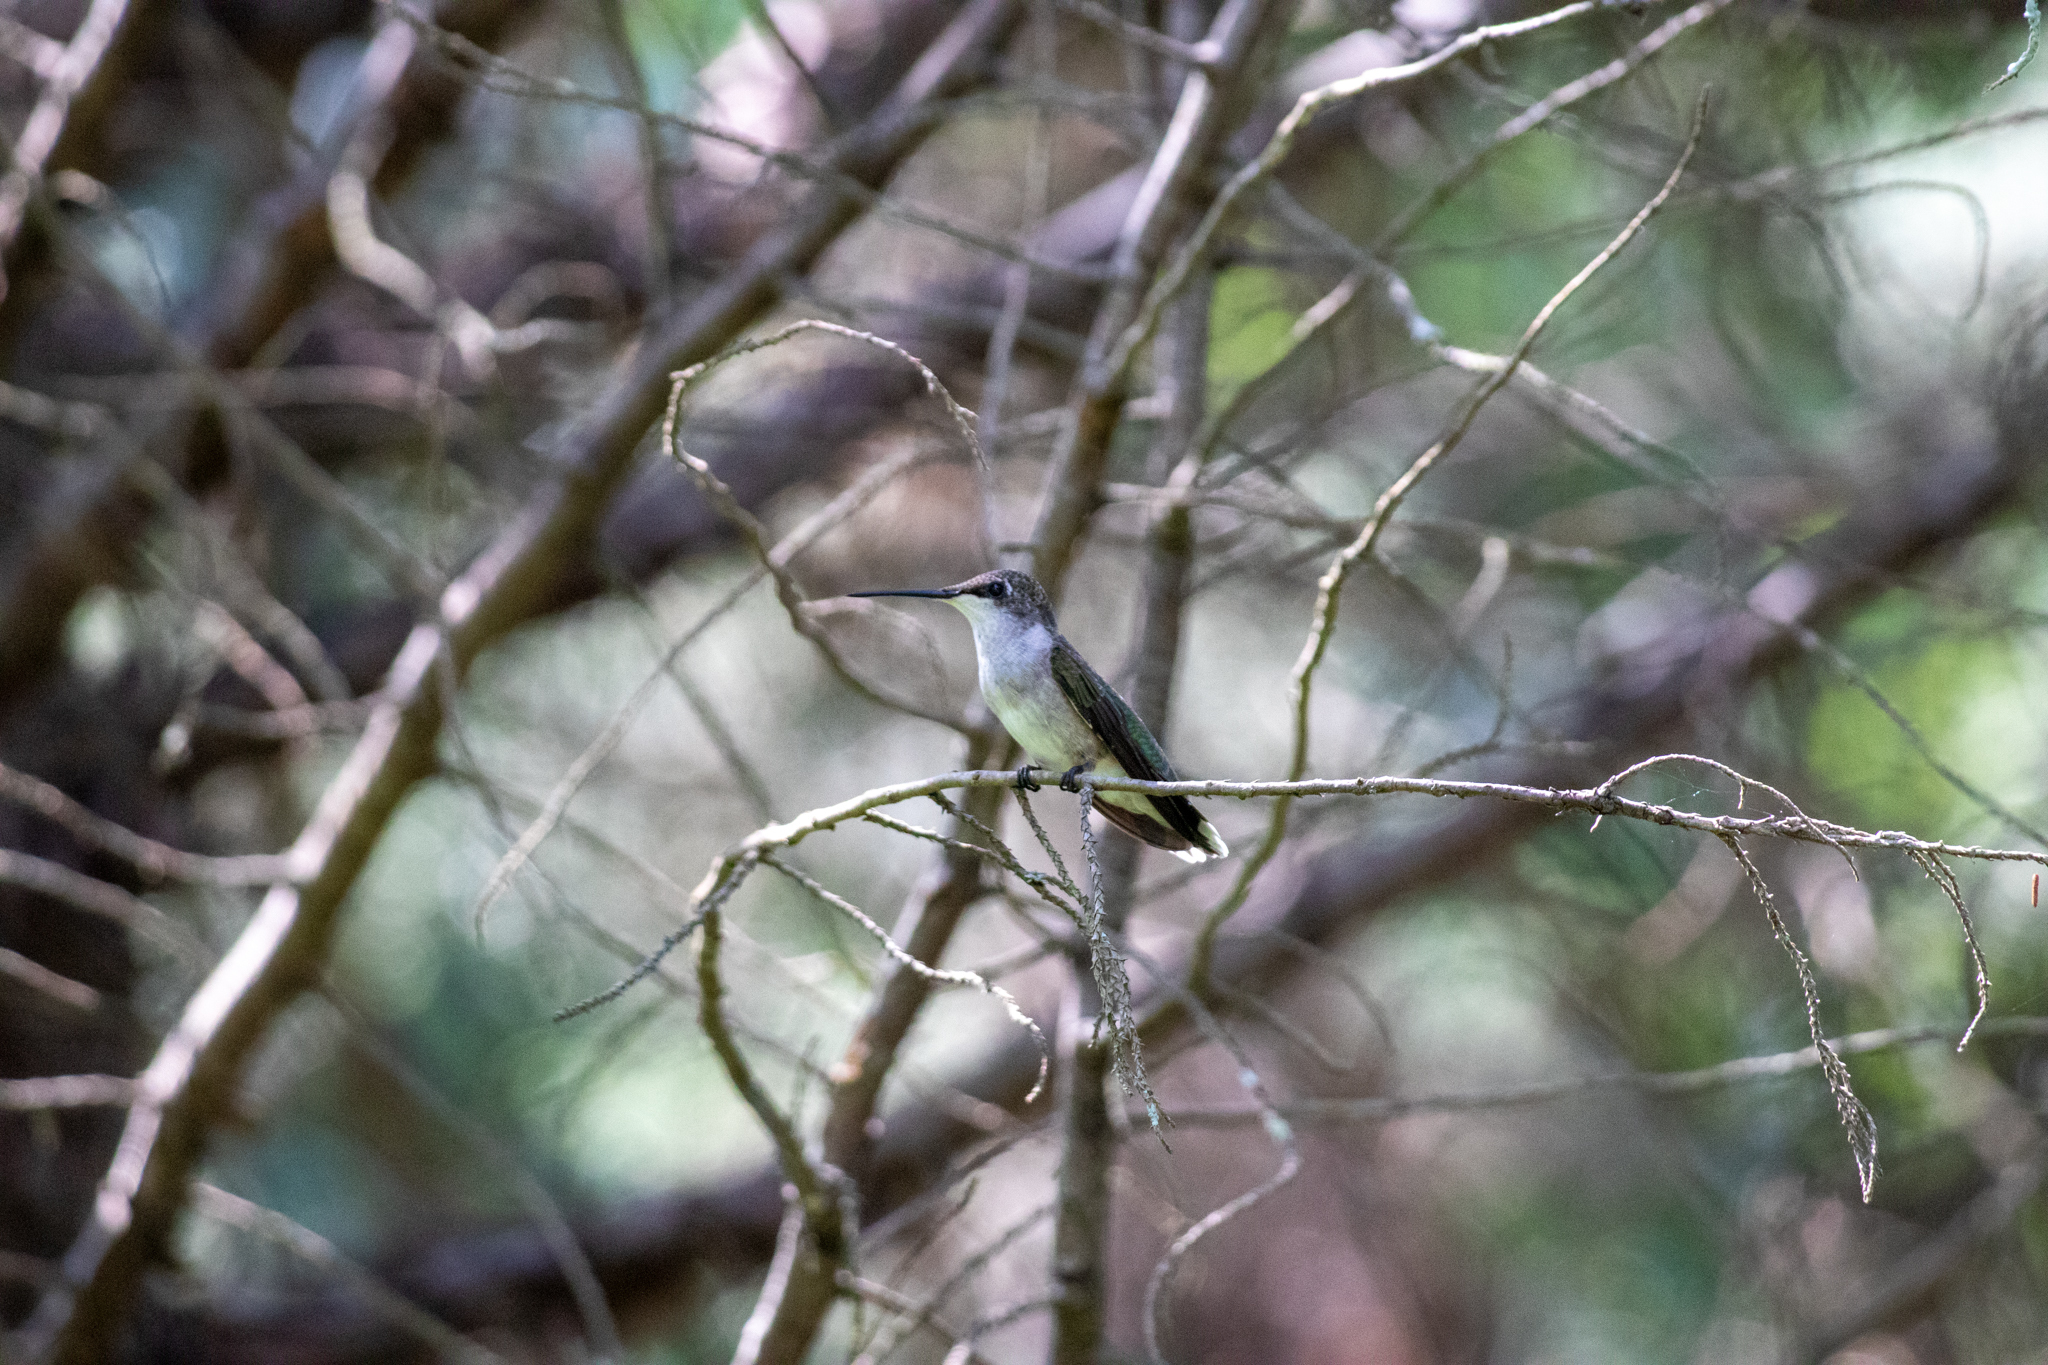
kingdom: Animalia
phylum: Chordata
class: Aves
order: Apodiformes
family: Trochilidae
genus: Archilochus
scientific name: Archilochus colubris
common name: Ruby-throated hummingbird
